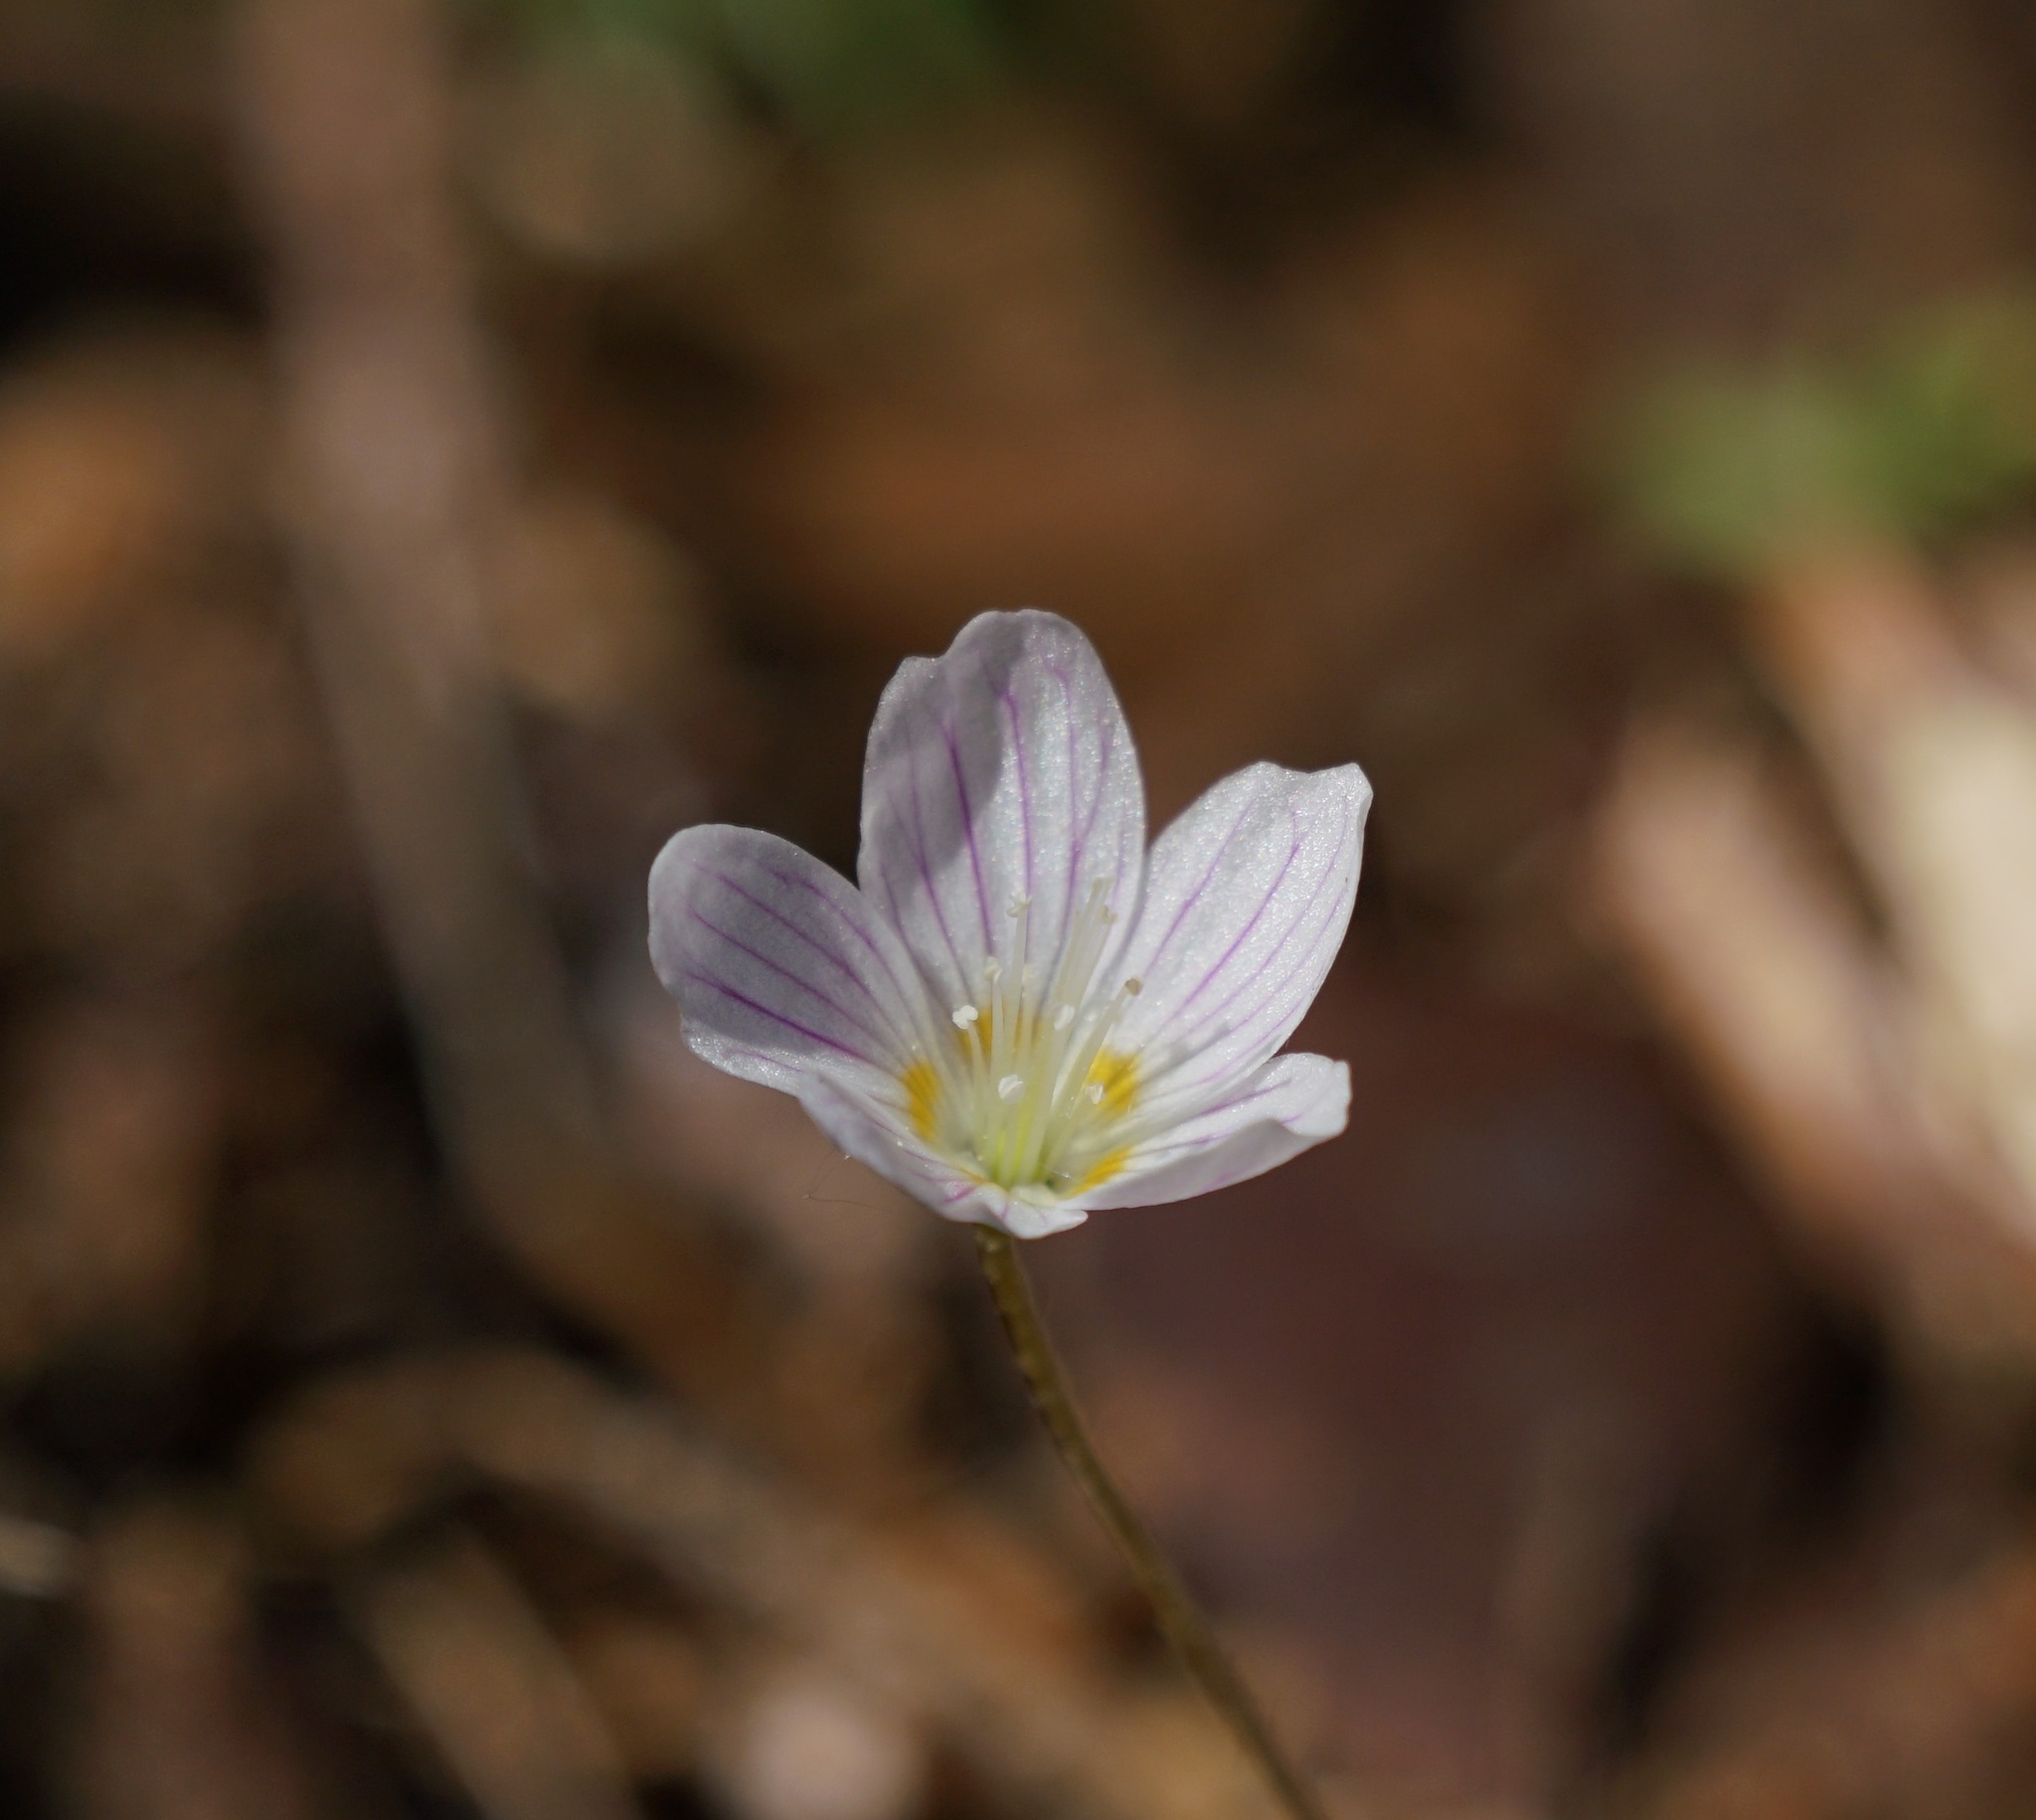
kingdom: Plantae
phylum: Tracheophyta
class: Magnoliopsida
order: Oxalidales
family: Oxalidaceae
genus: Oxalis
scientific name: Oxalis acetosella
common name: Wood-sorrel
